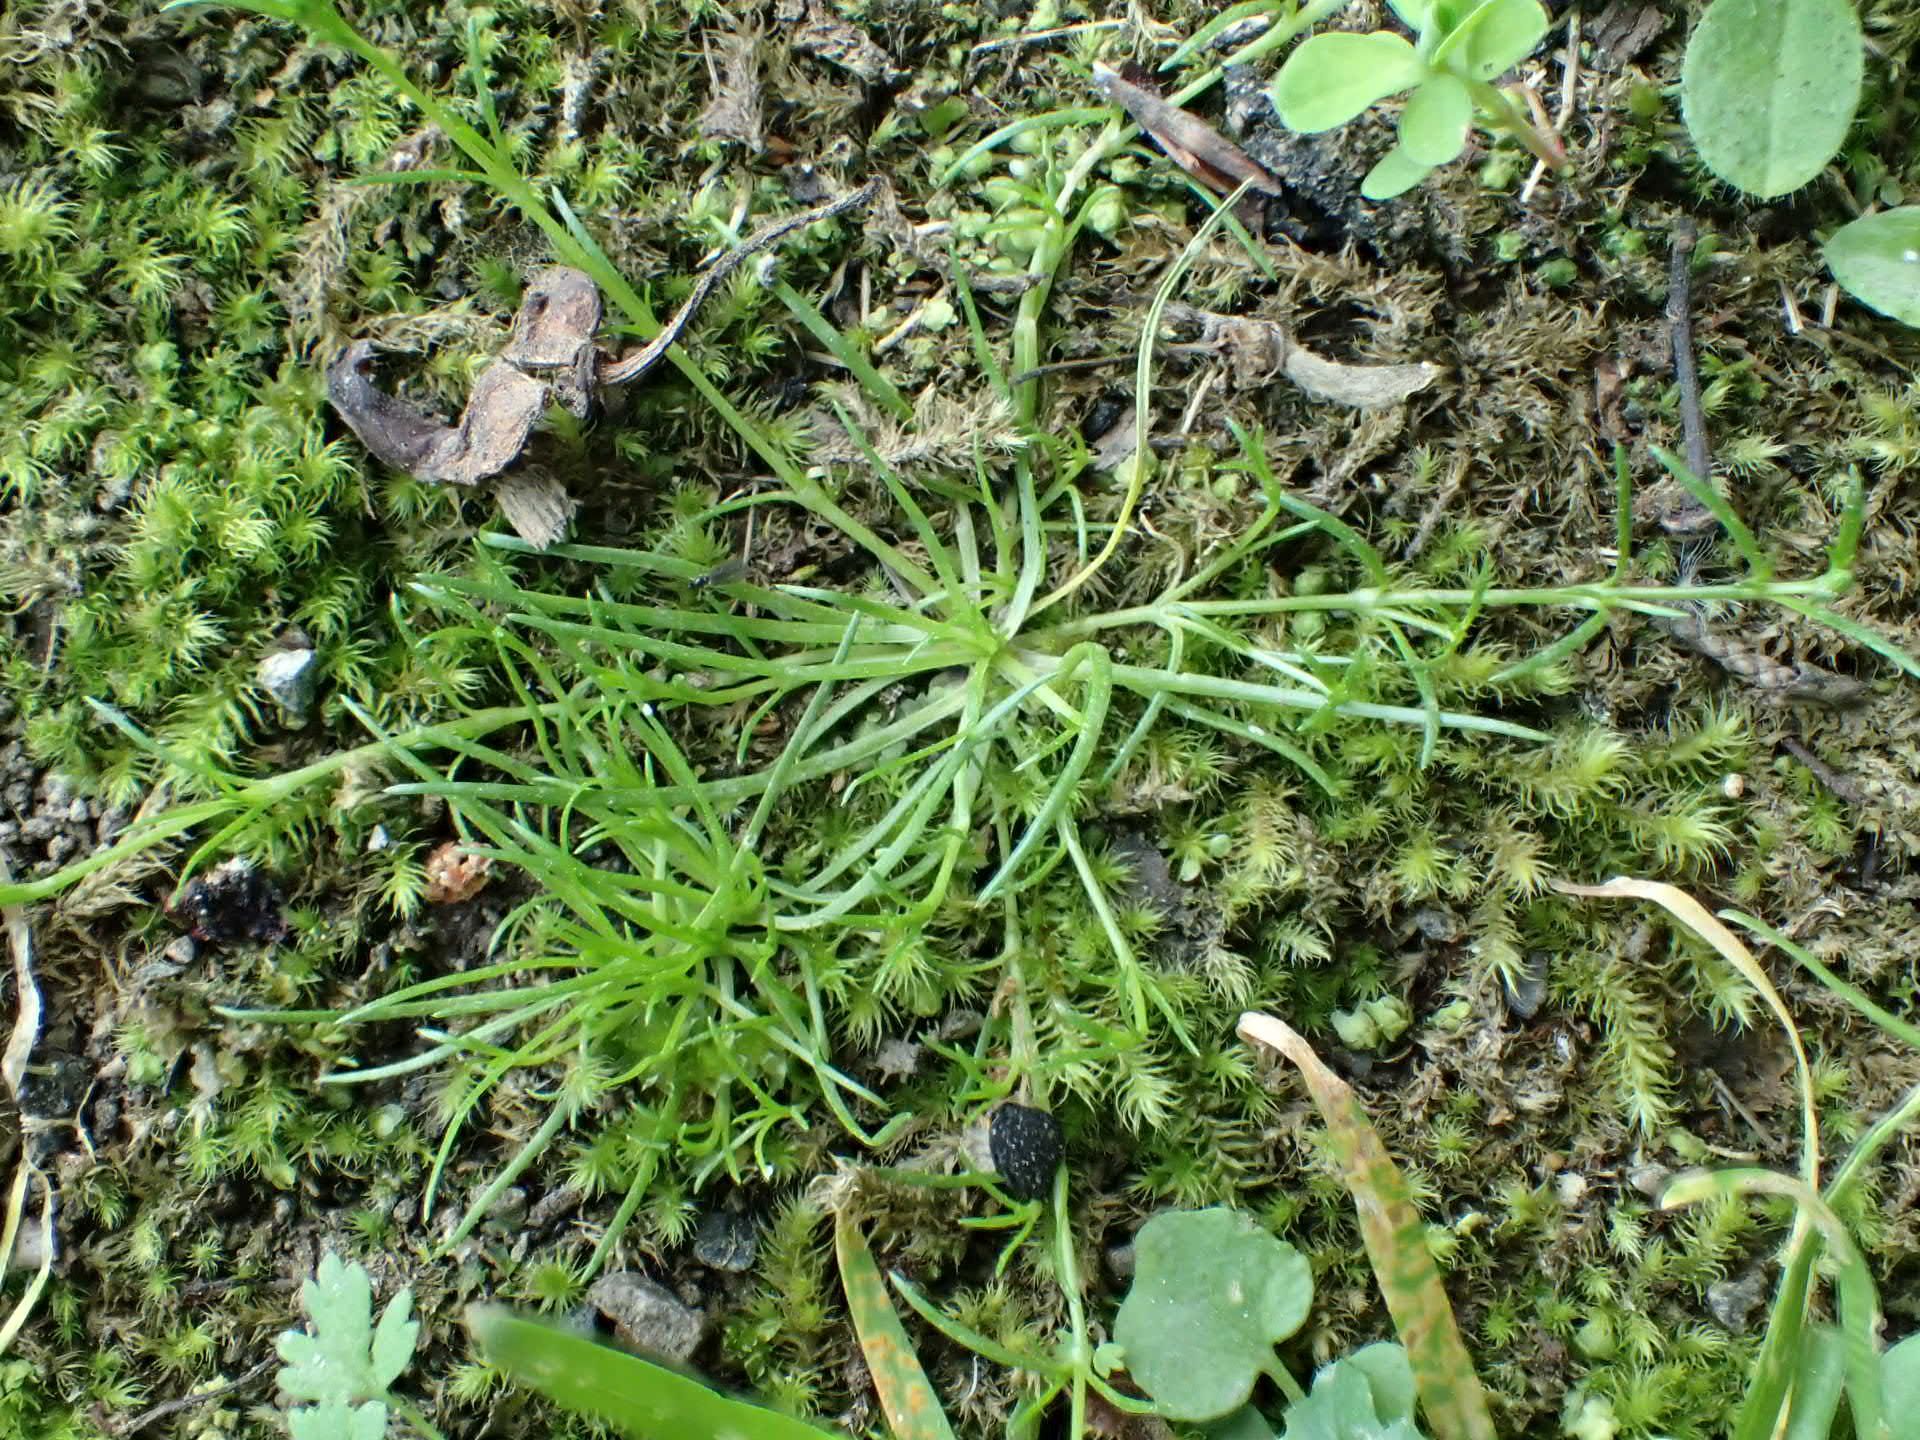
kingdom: Plantae
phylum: Tracheophyta
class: Magnoliopsida
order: Caryophyllales
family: Caryophyllaceae
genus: Sagina
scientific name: Sagina procumbens
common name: Procumbent pearlwort
